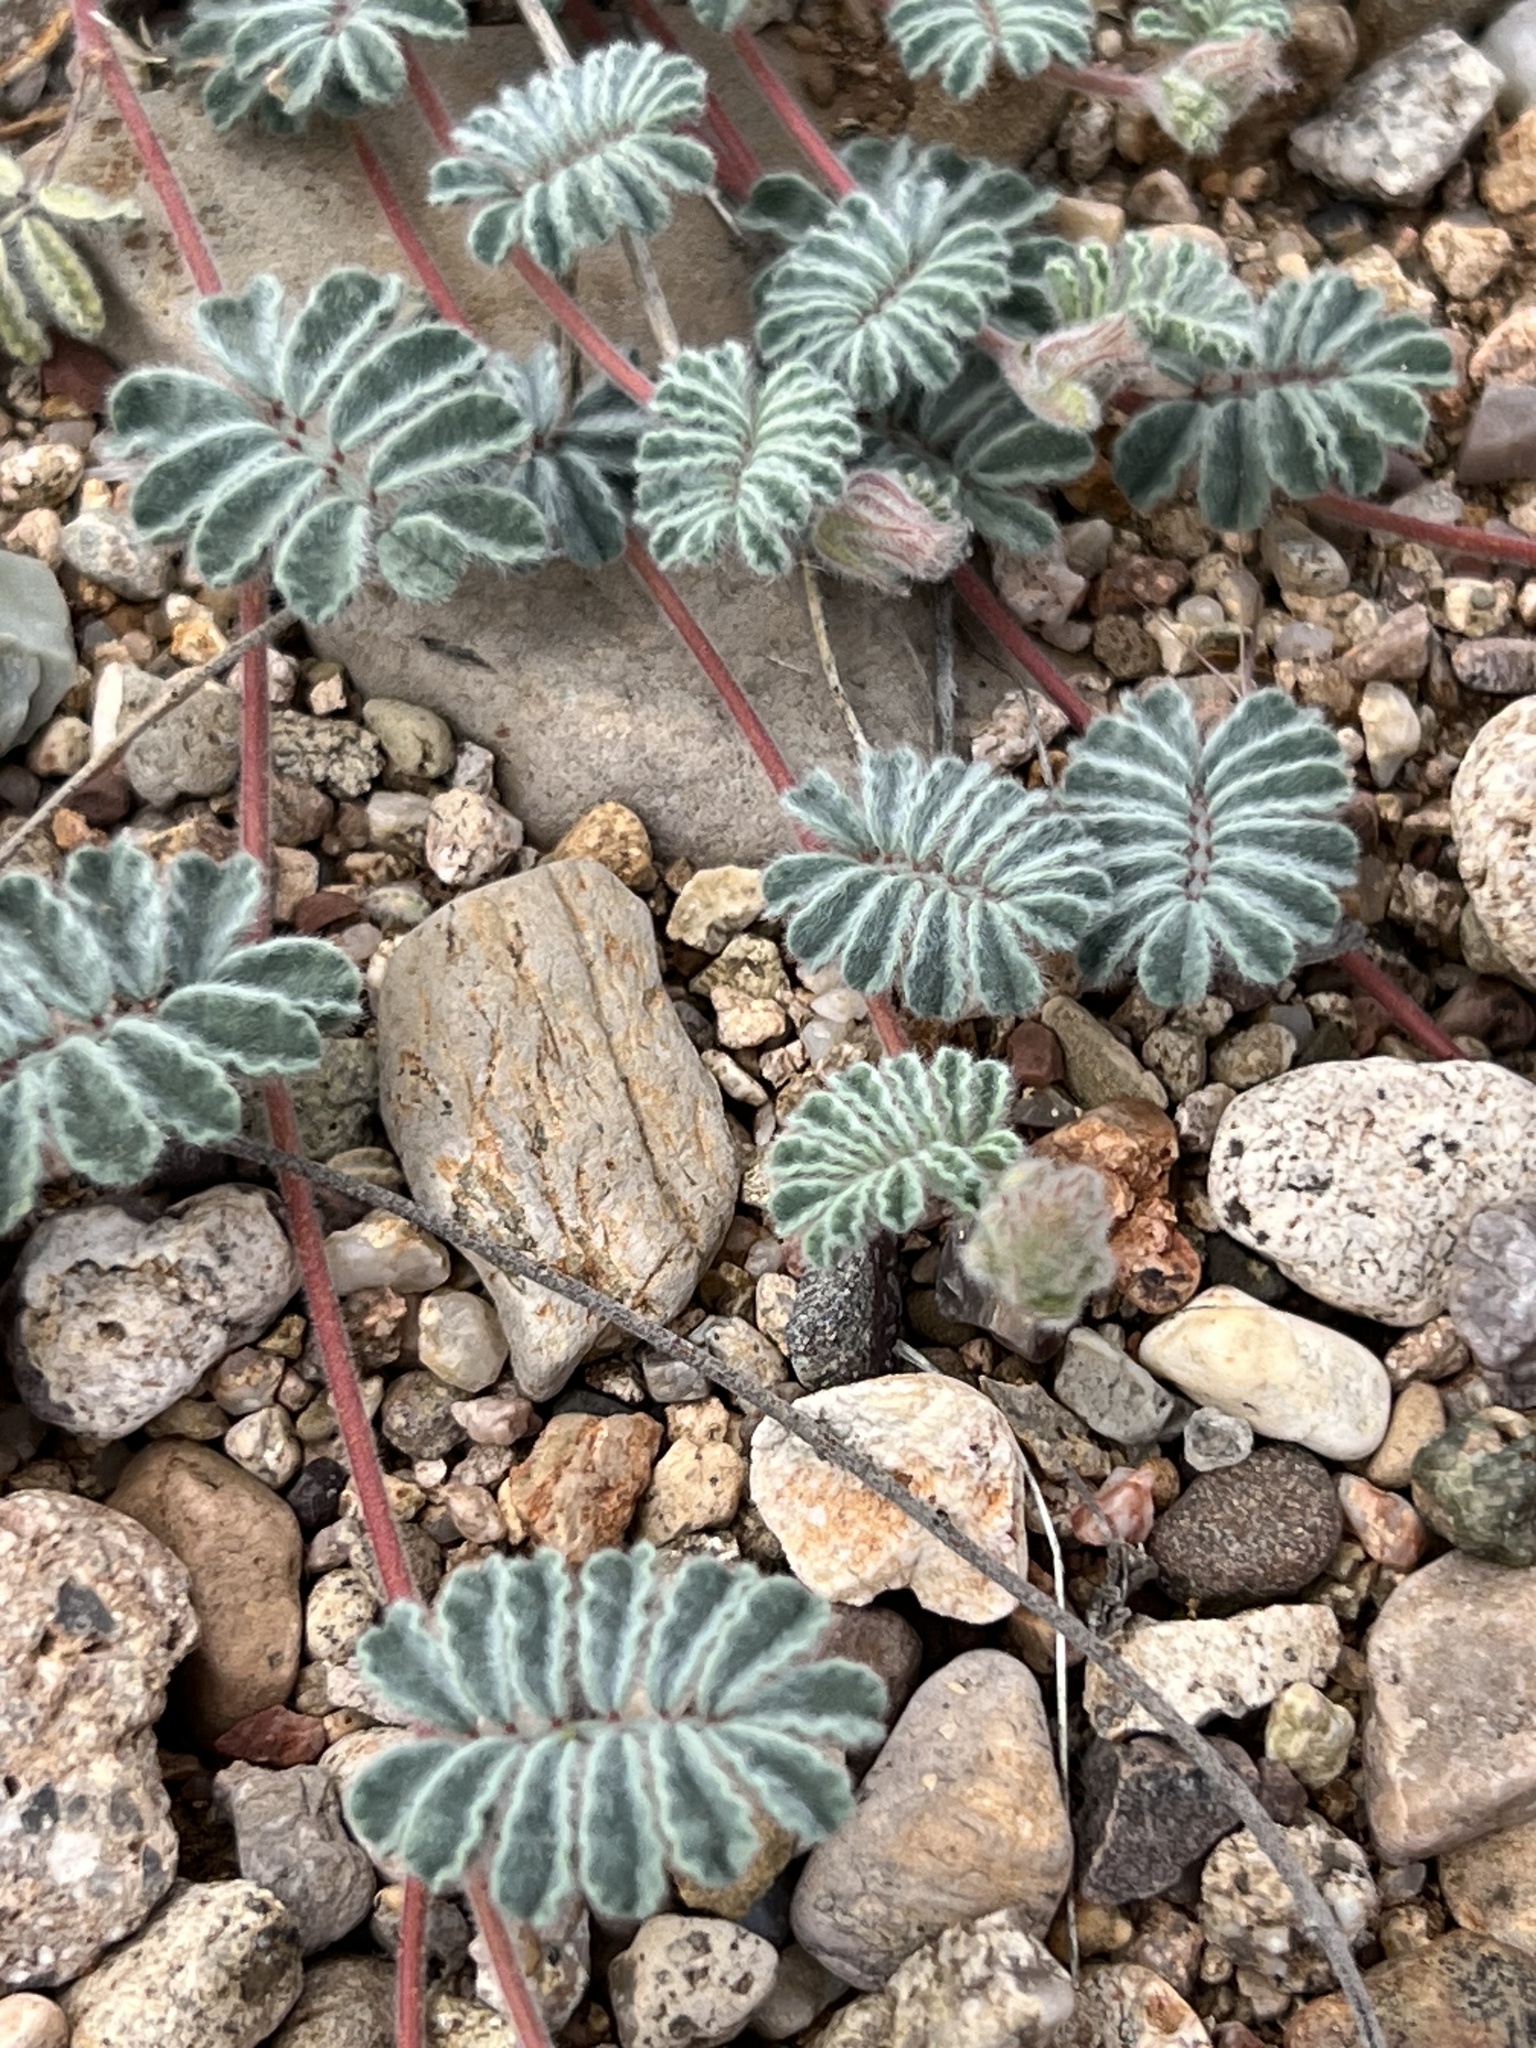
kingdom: Plantae
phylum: Tracheophyta
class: Magnoliopsida
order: Fabales
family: Fabaceae
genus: Dalea
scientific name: Dalea neomexicana
